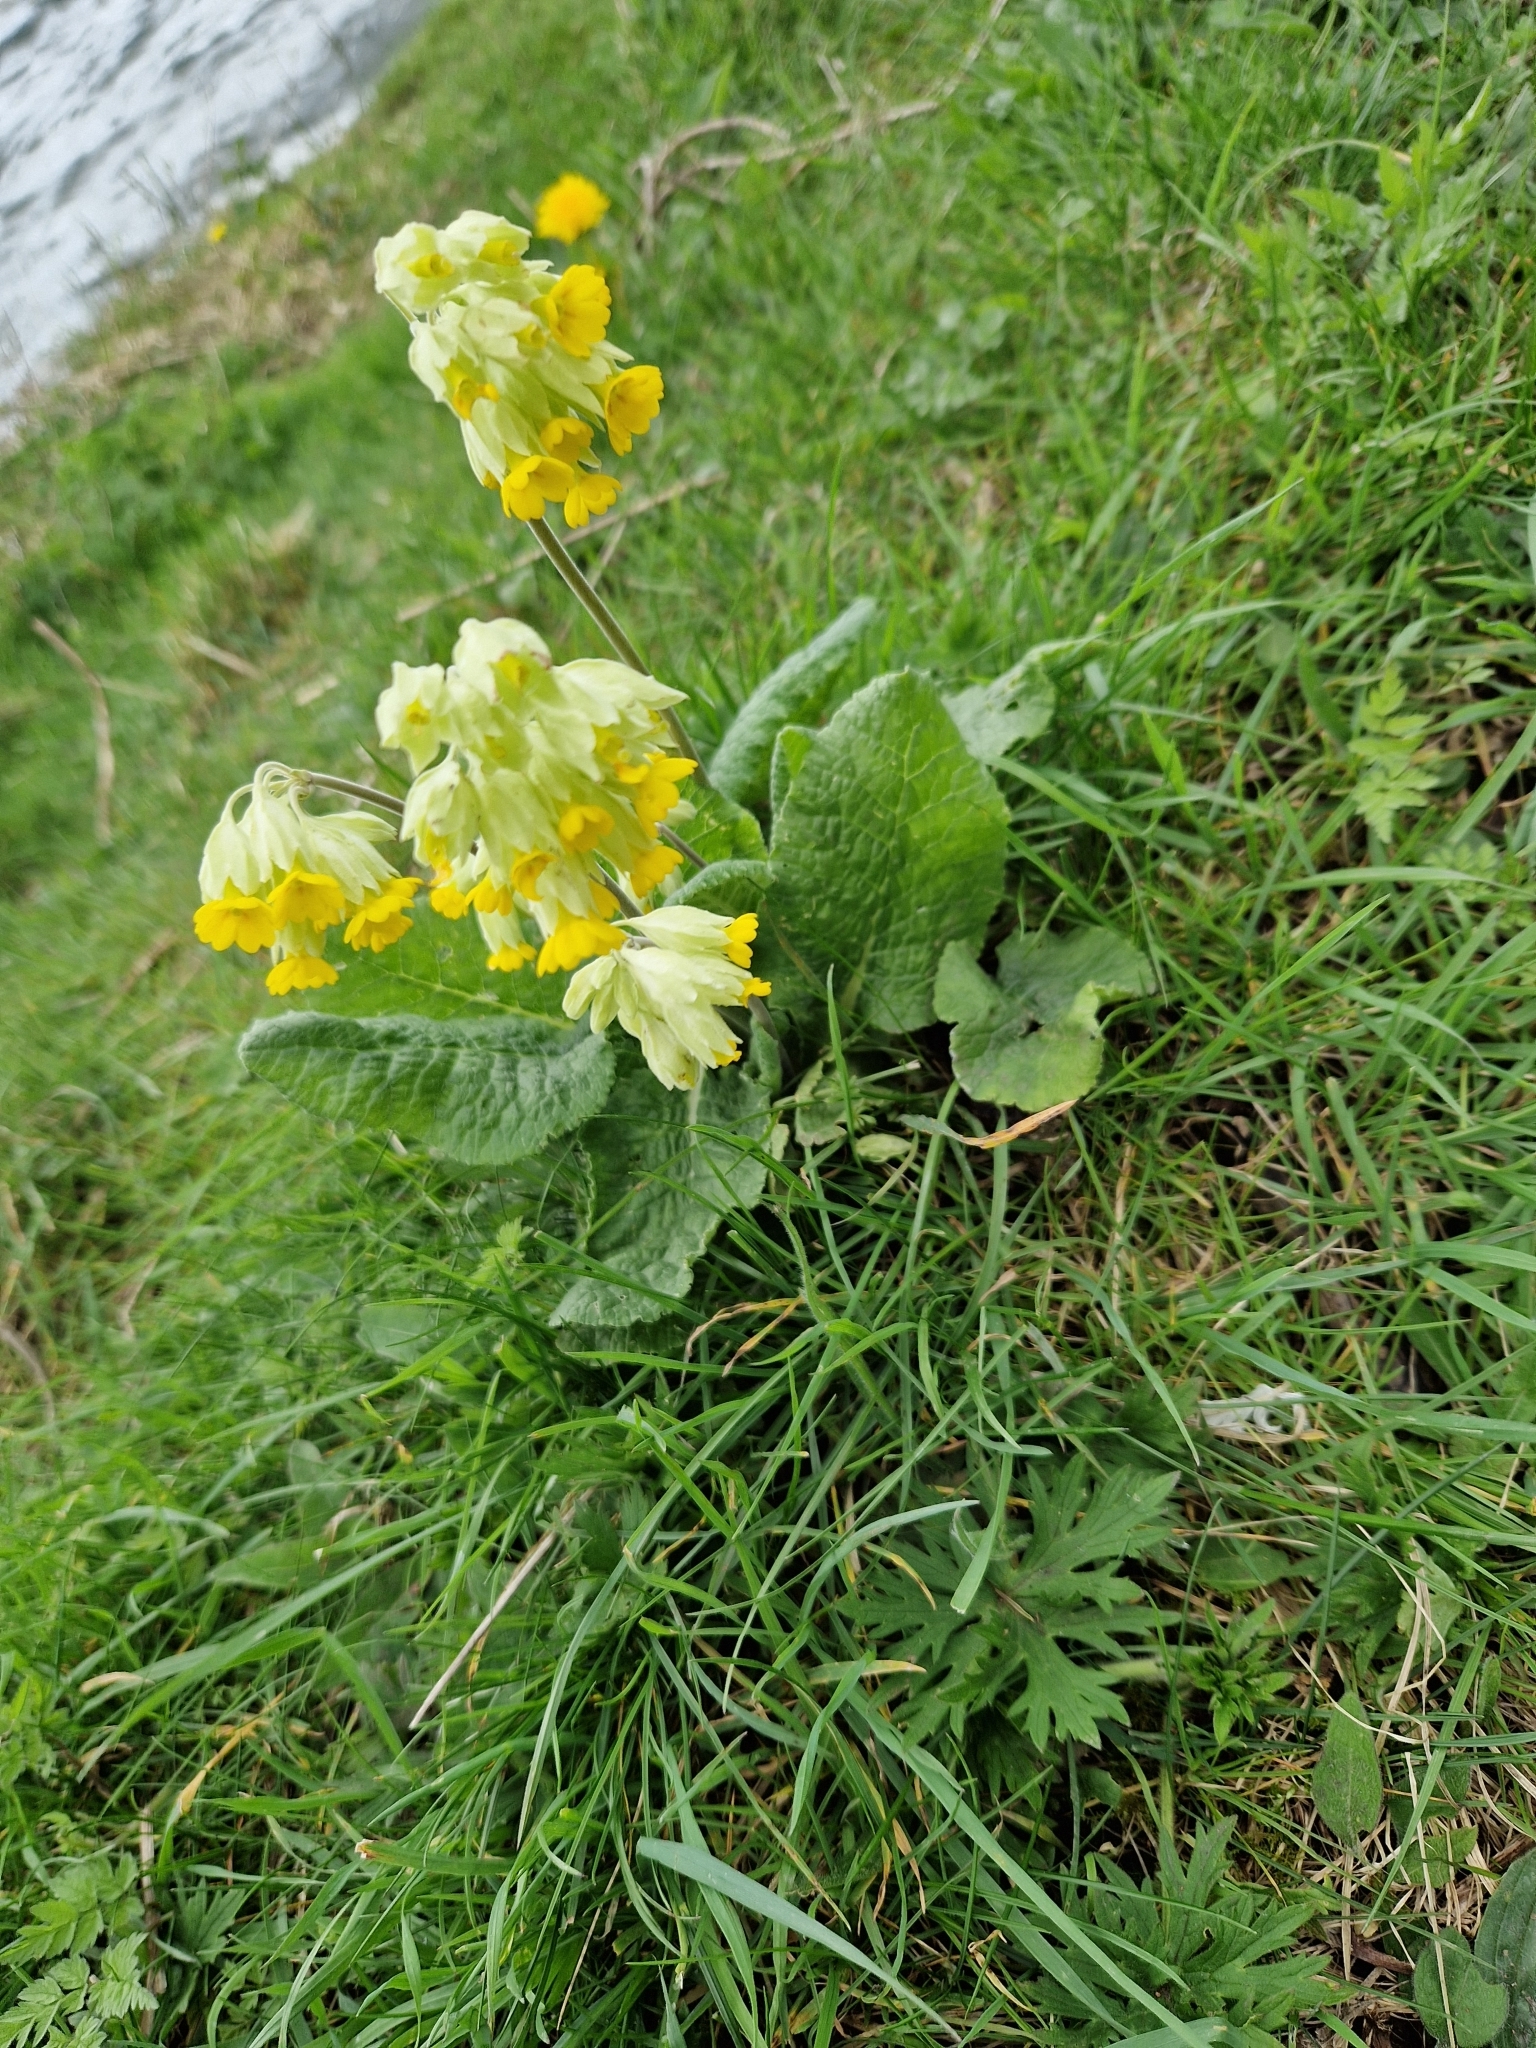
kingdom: Plantae
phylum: Tracheophyta
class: Magnoliopsida
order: Ericales
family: Primulaceae
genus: Primula
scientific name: Primula veris
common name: Cowslip
